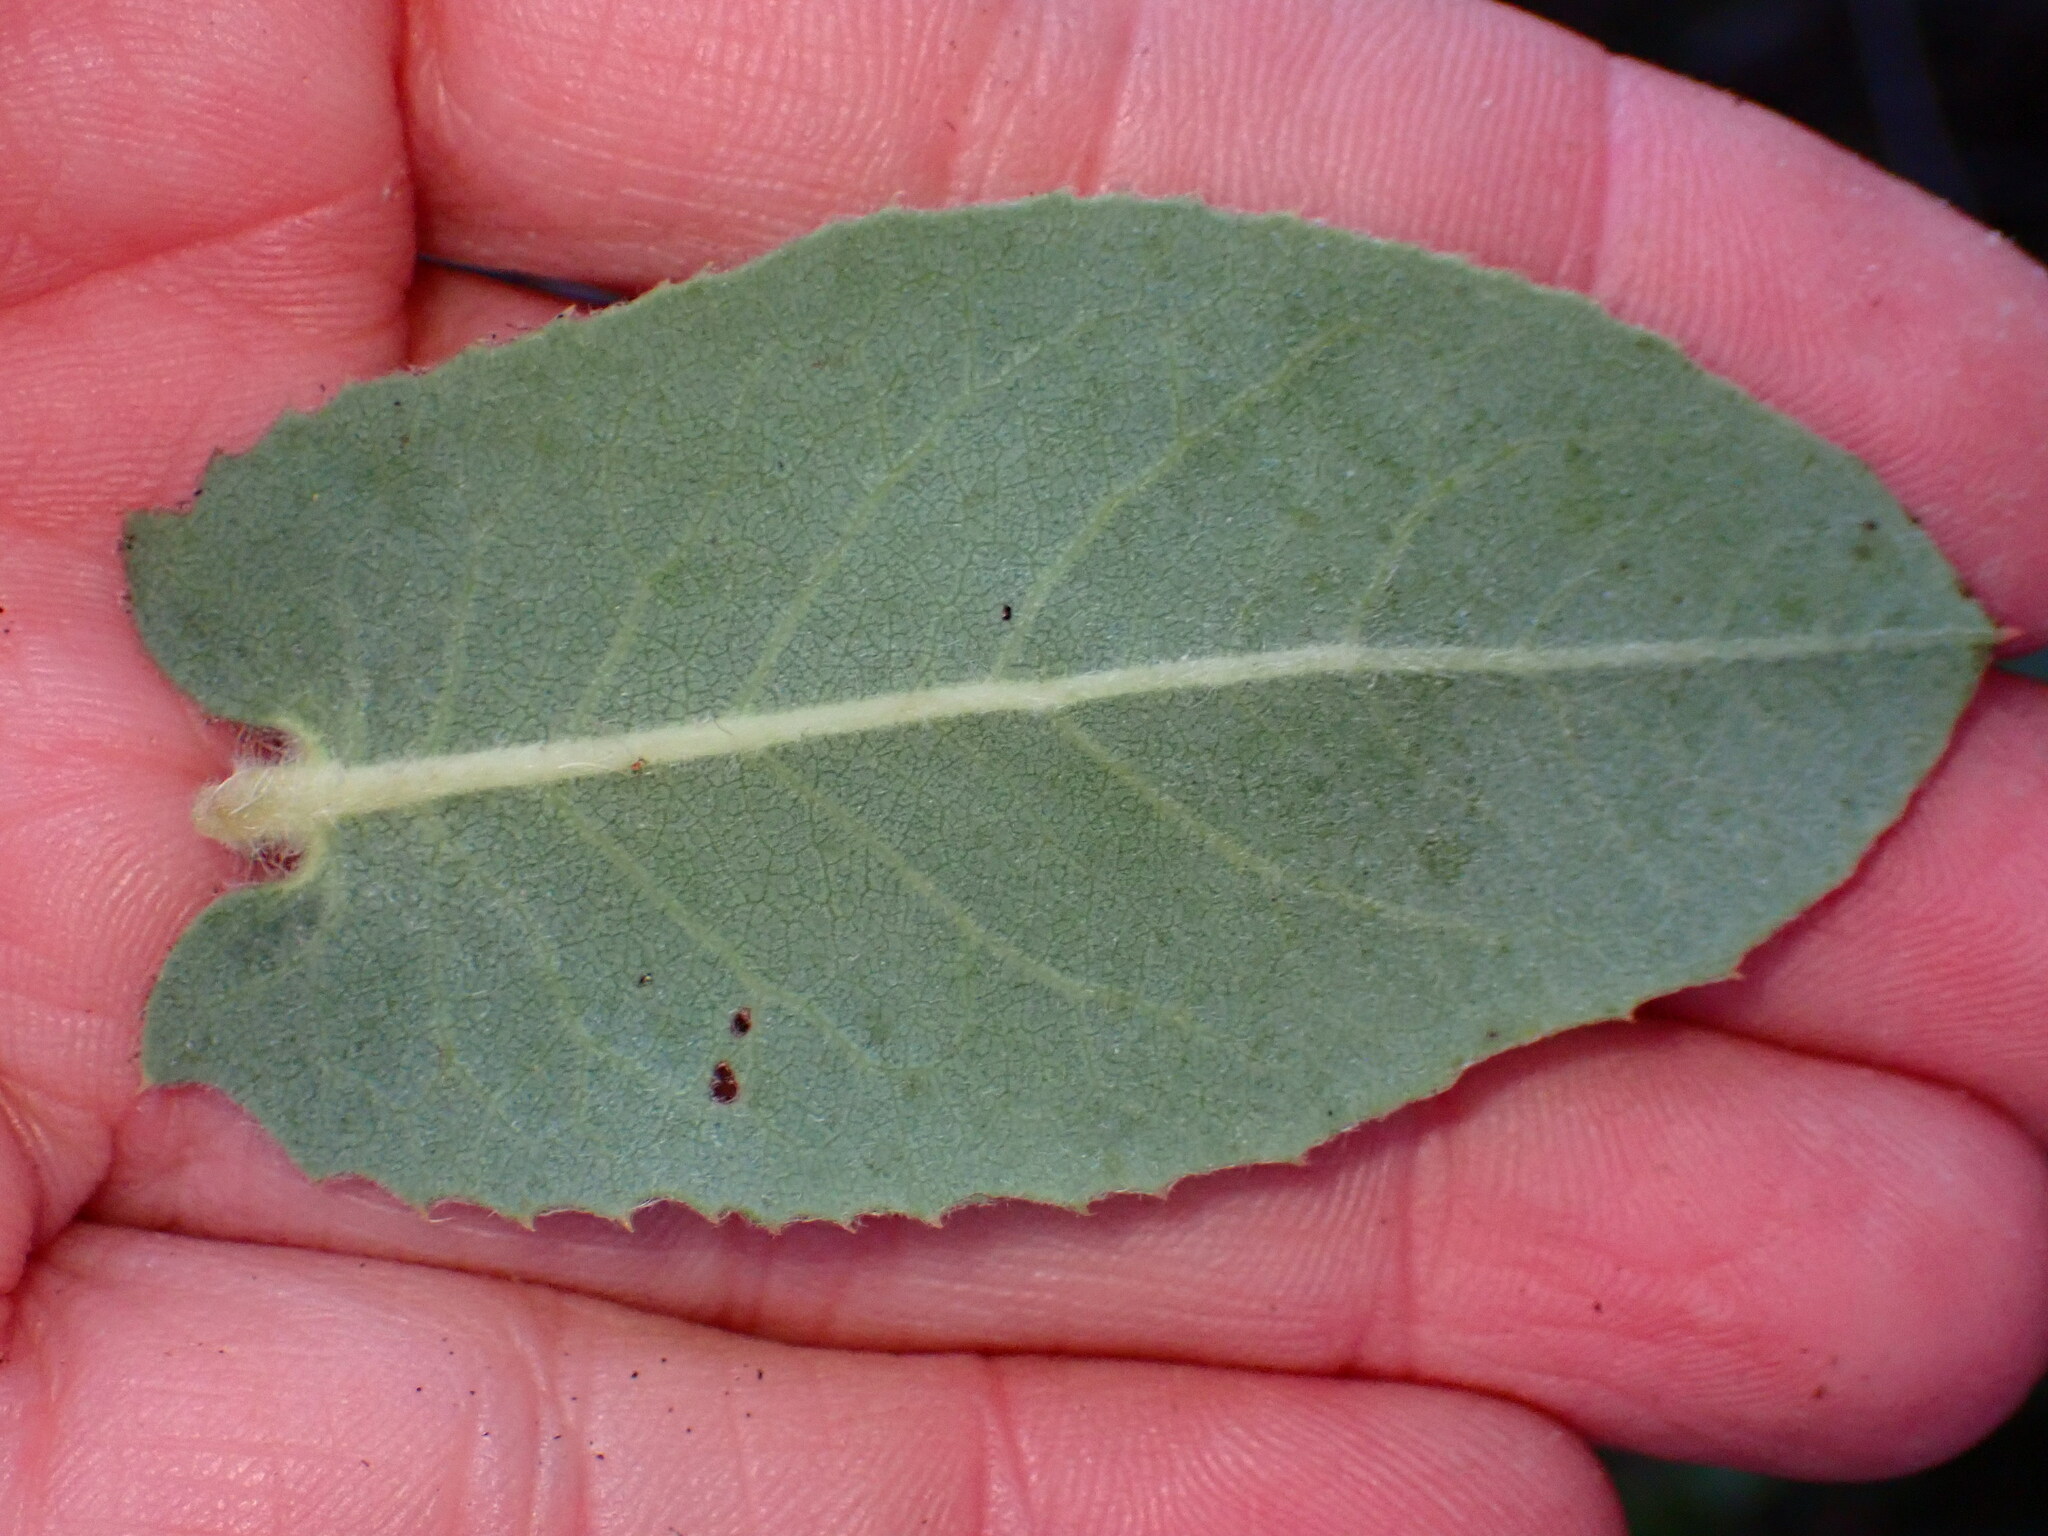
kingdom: Plantae
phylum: Tracheophyta
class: Magnoliopsida
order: Ericales
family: Ericaceae
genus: Arctostaphylos
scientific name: Arctostaphylos regismontana
